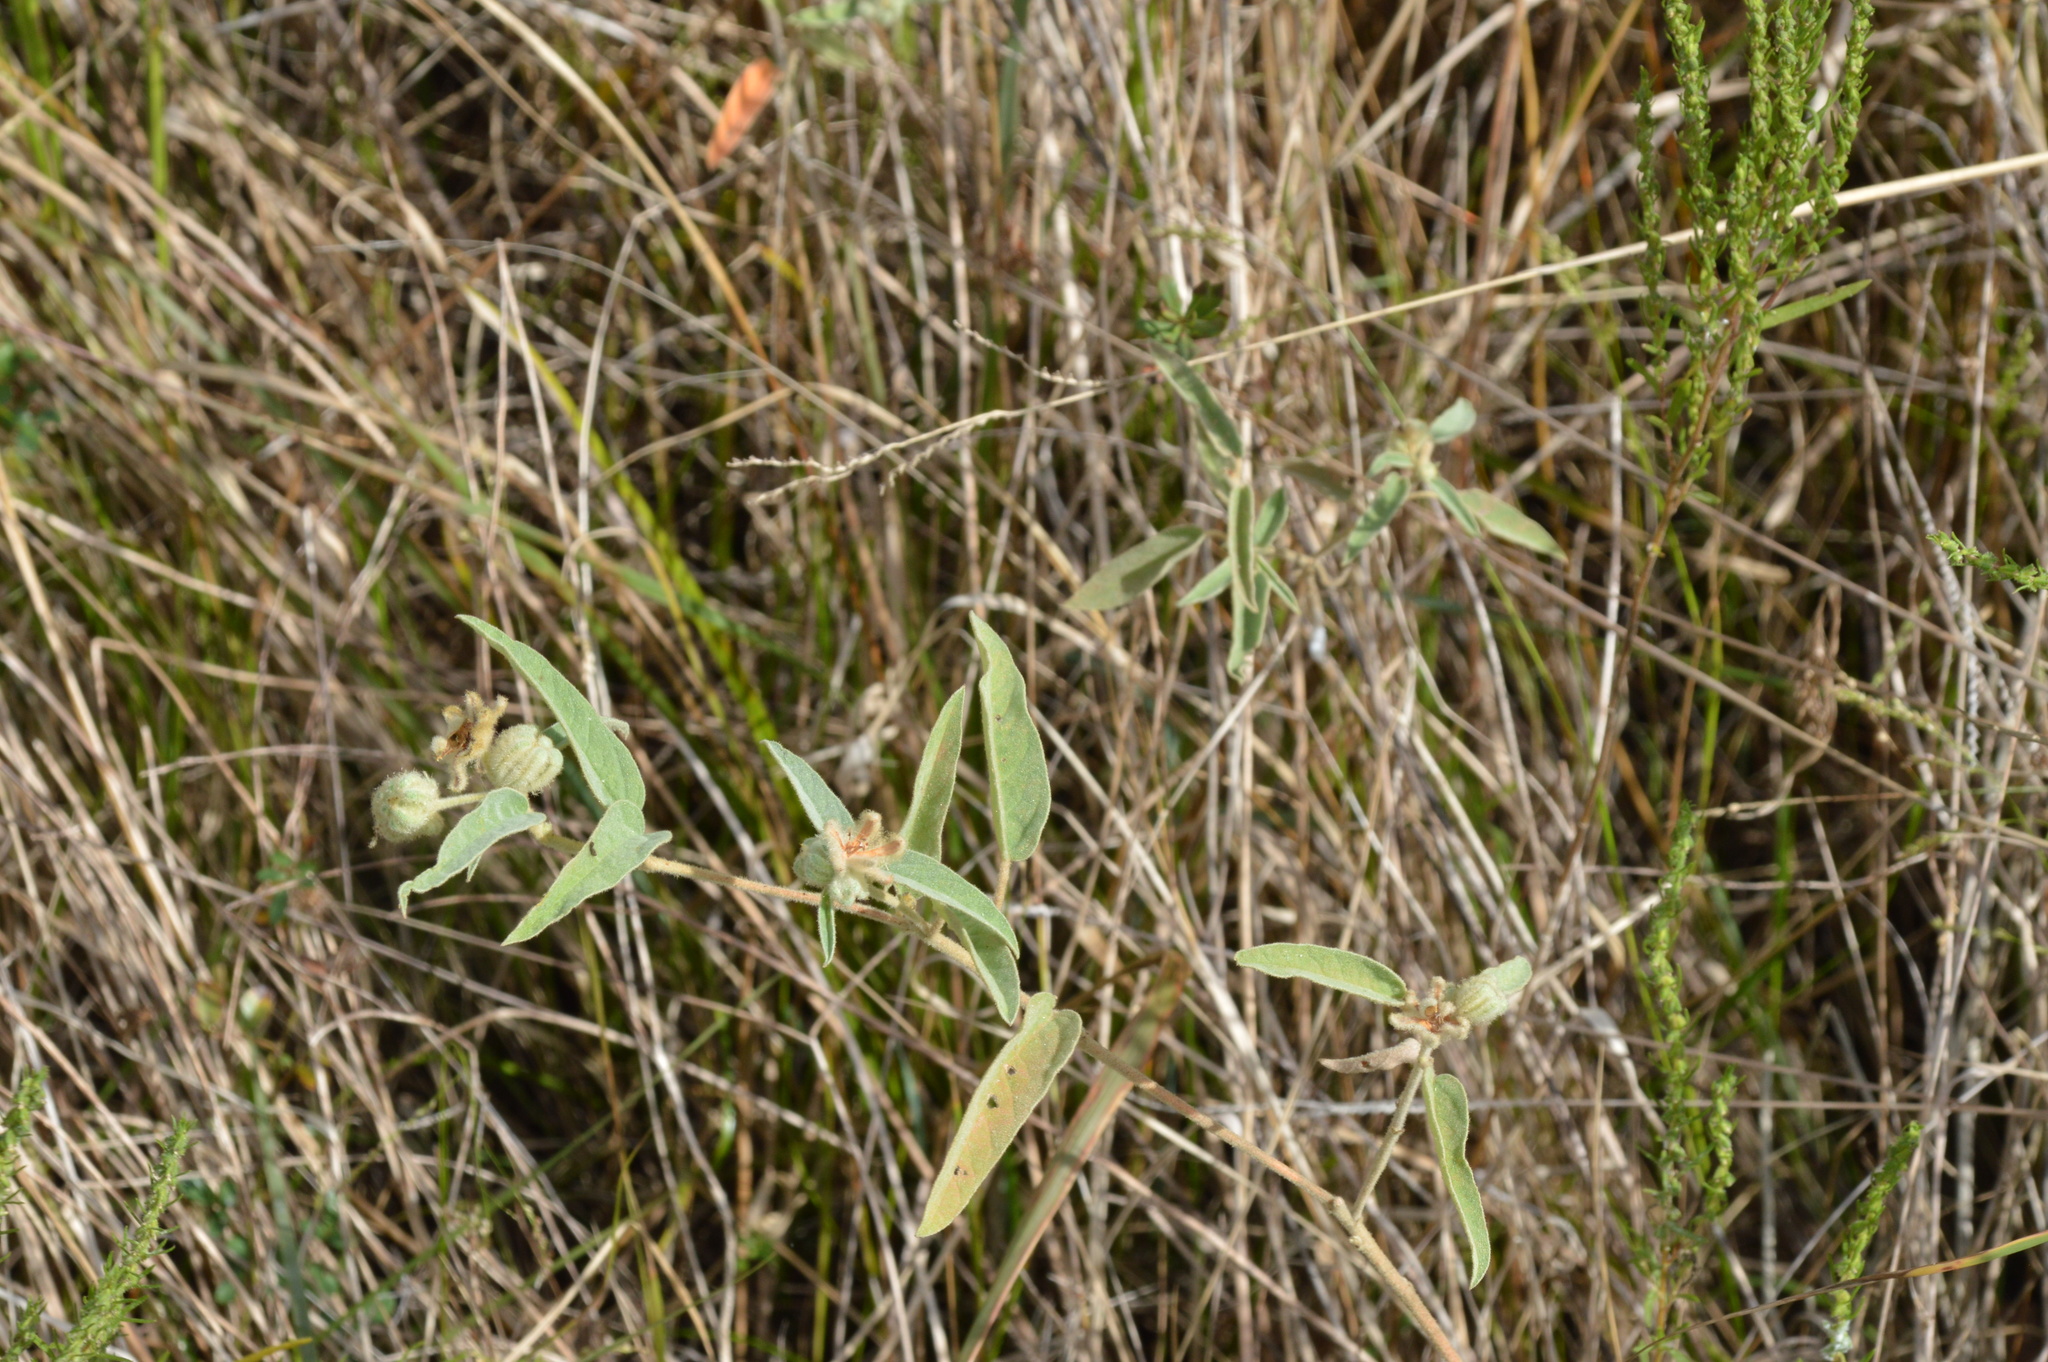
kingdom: Plantae
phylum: Tracheophyta
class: Magnoliopsida
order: Malpighiales
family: Euphorbiaceae
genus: Croton
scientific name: Croton lindheimeri
